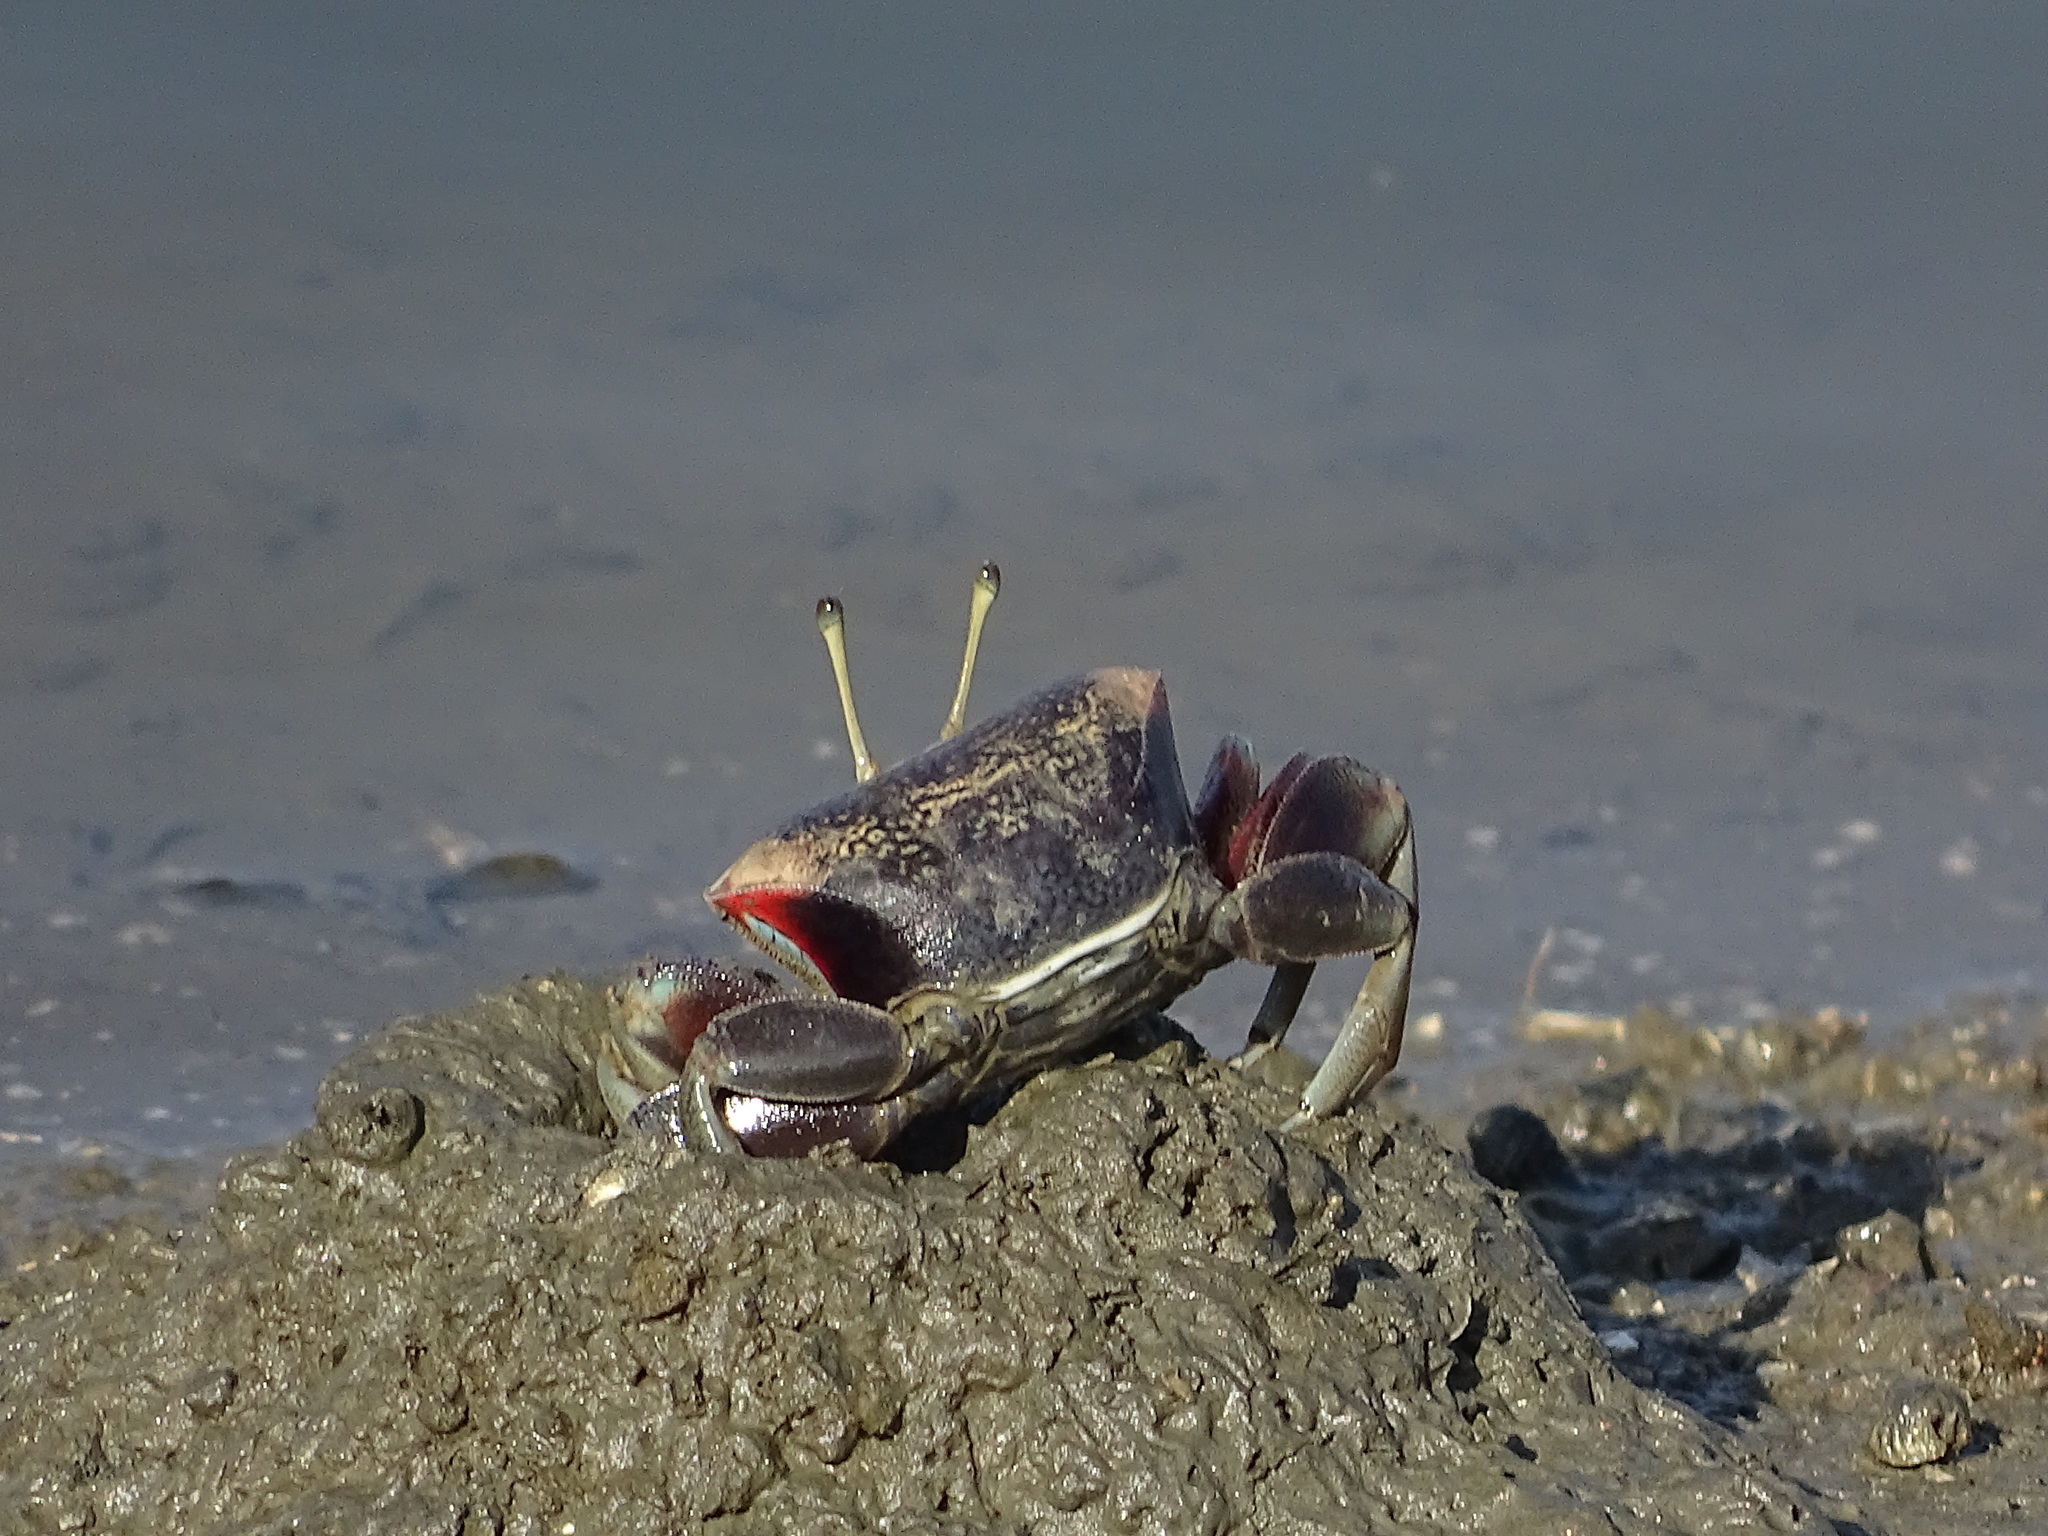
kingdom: Animalia
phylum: Arthropoda
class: Malacostraca
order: Decapoda
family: Ocypodidae
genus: Tubuca
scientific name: Tubuca arcuata
